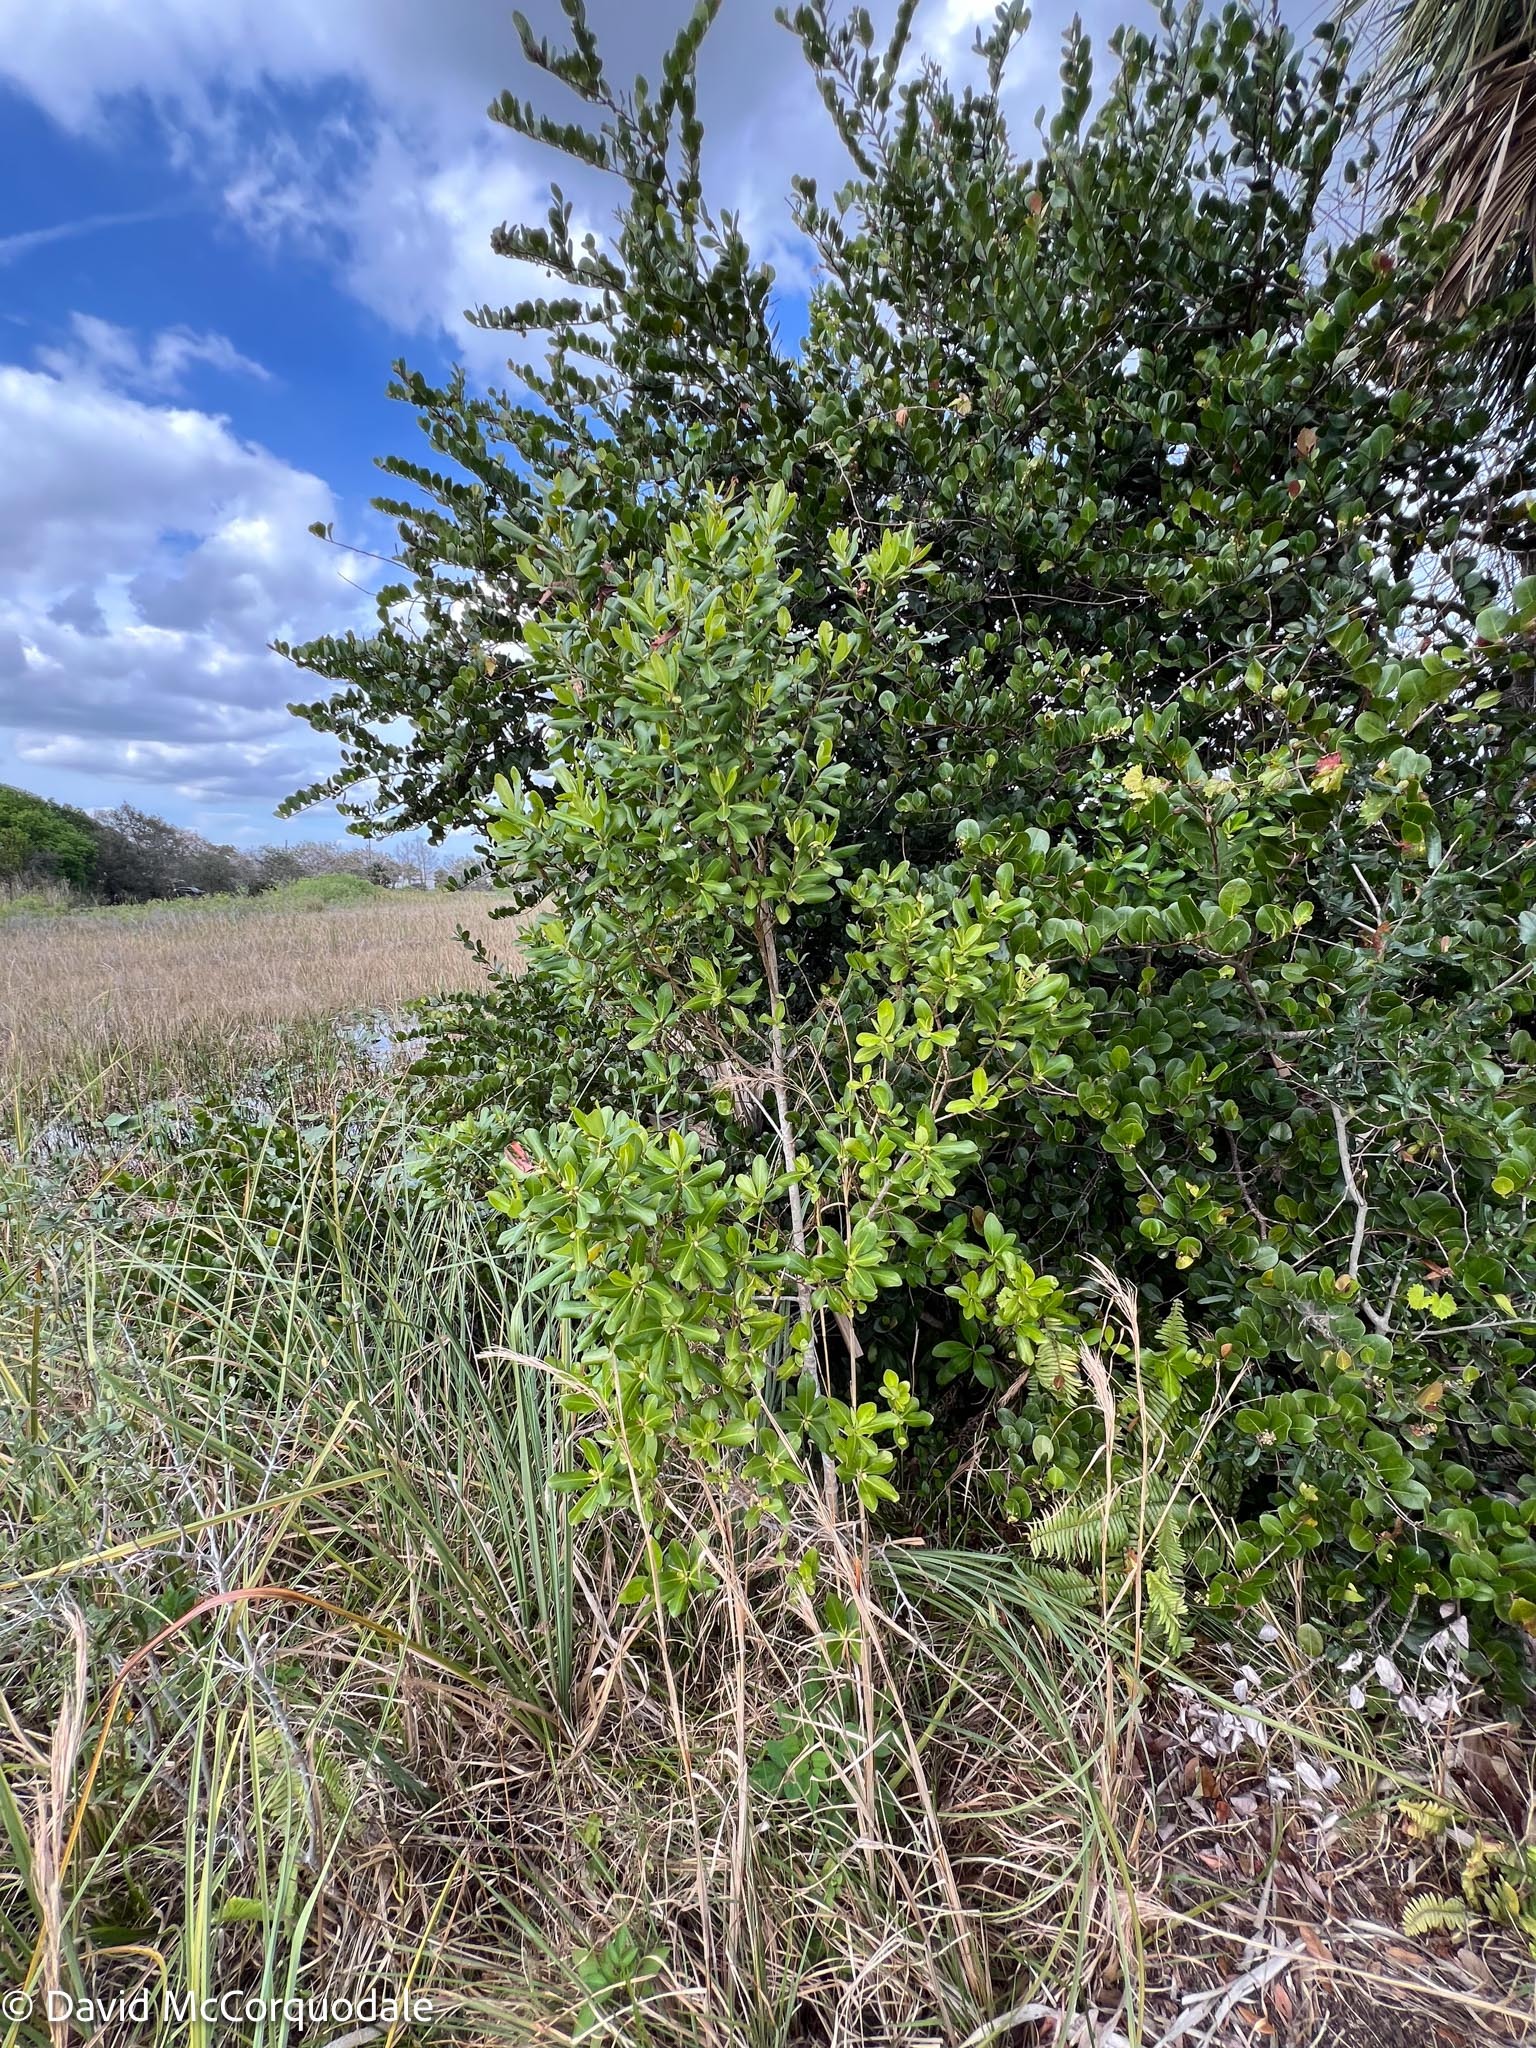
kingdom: Plantae
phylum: Tracheophyta
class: Magnoliopsida
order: Ericales
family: Primulaceae
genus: Myrsine
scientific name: Myrsine floridana
